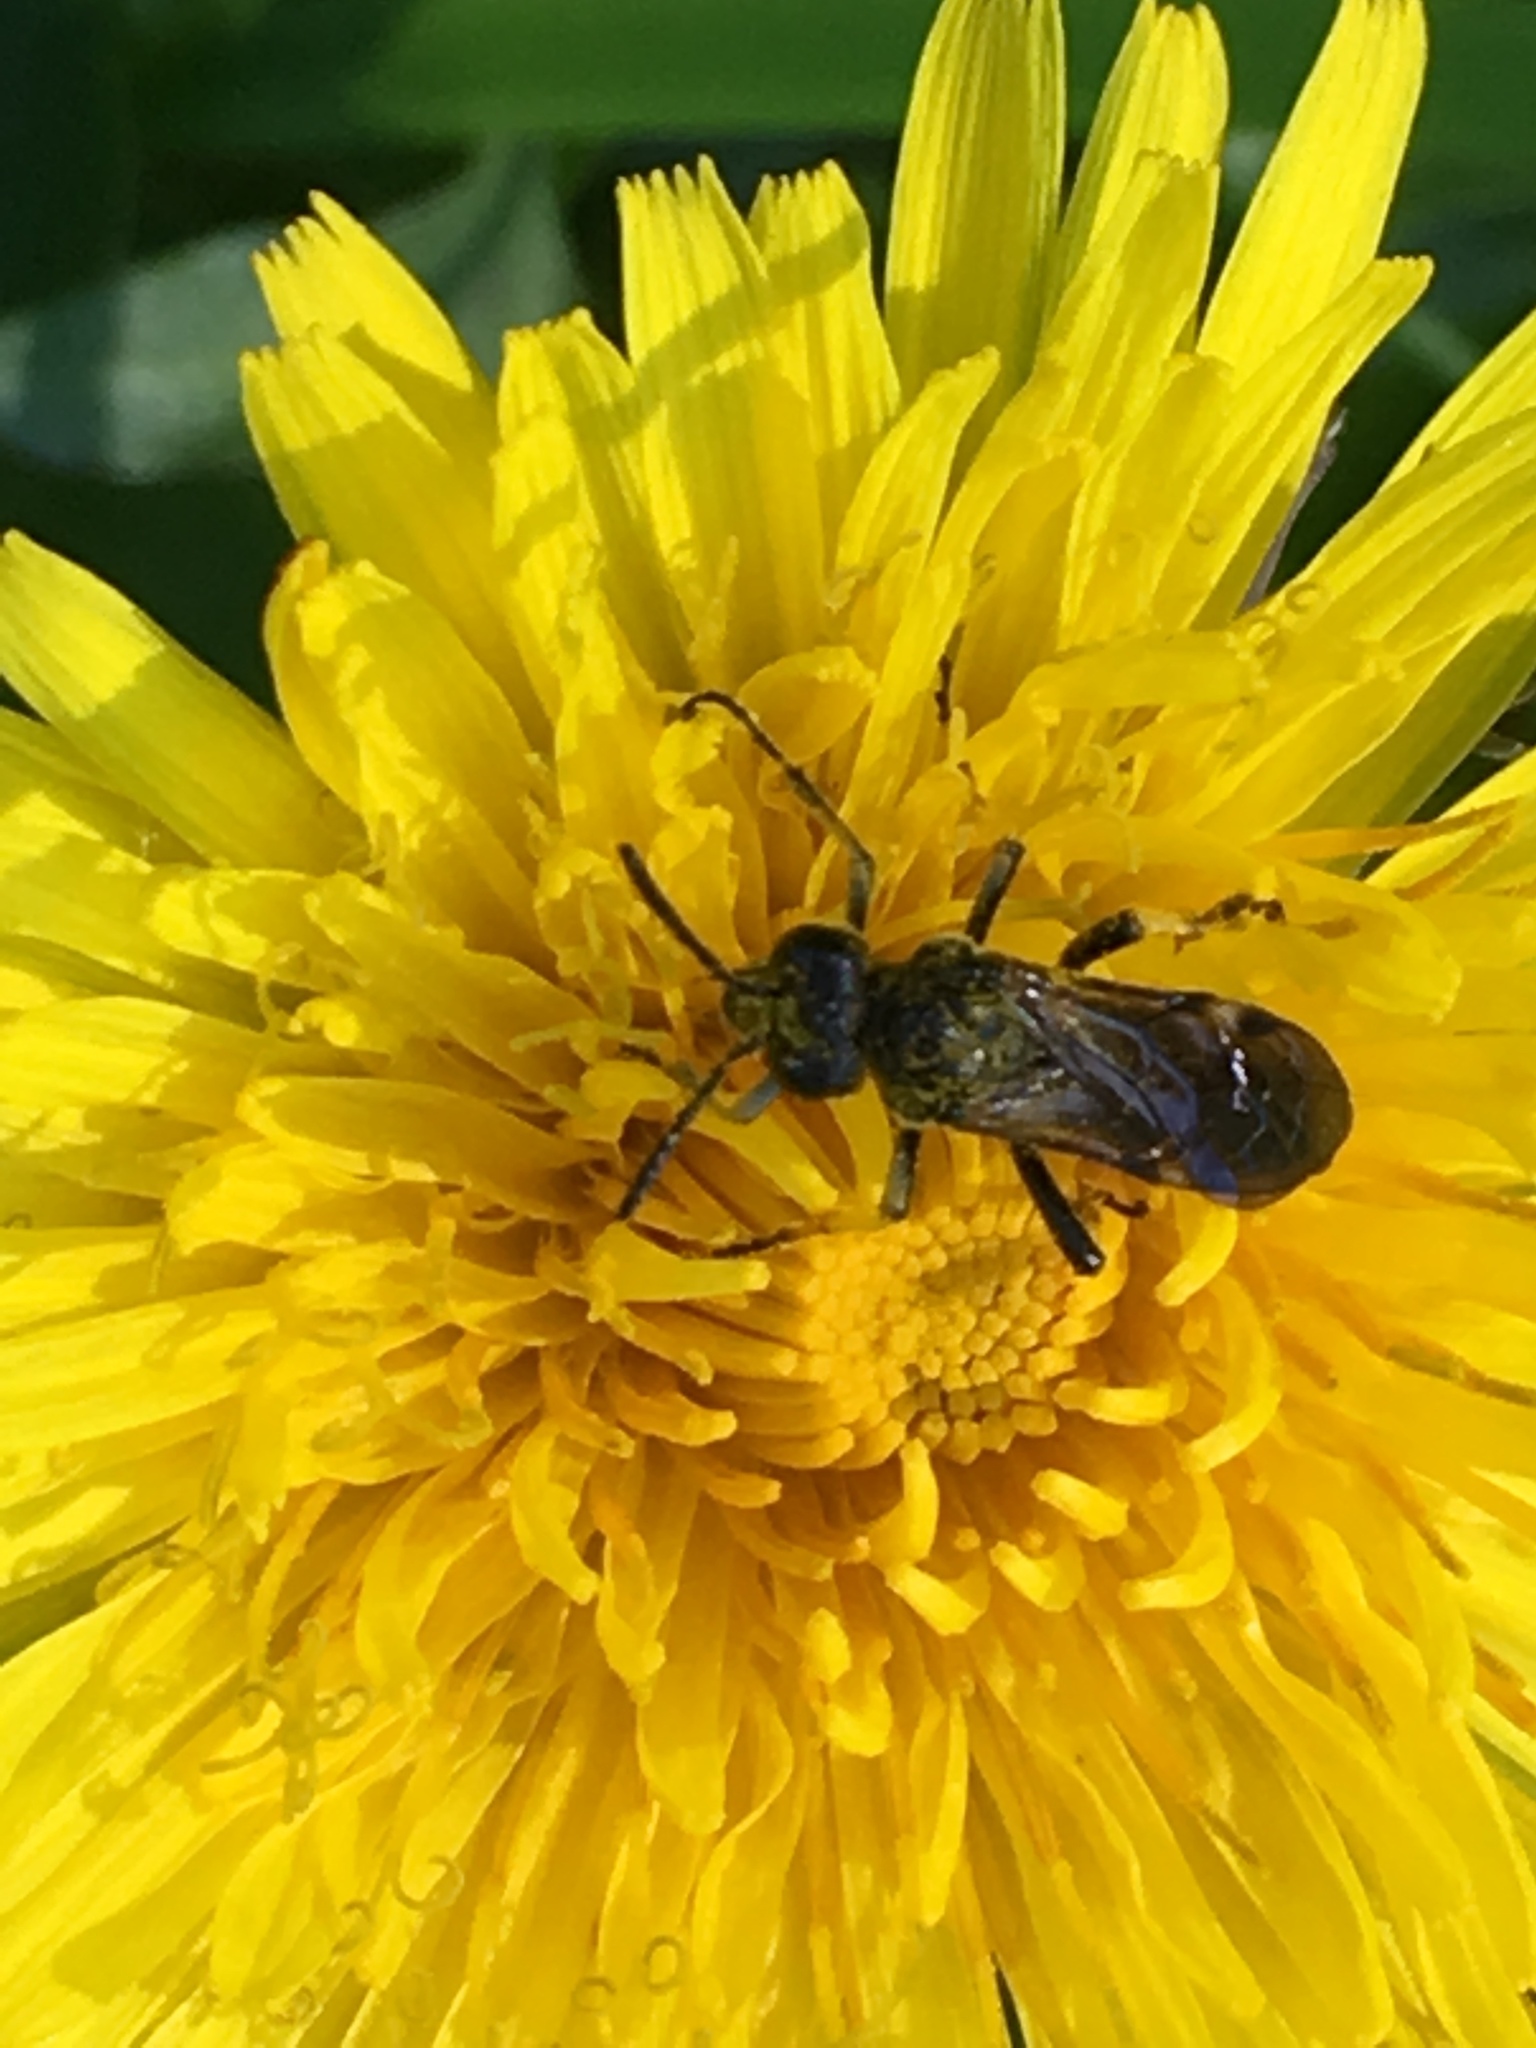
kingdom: Animalia
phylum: Arthropoda
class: Insecta
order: Hymenoptera
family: Tenthredinidae
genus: Tenthredo
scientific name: Tenthredo koehleri
